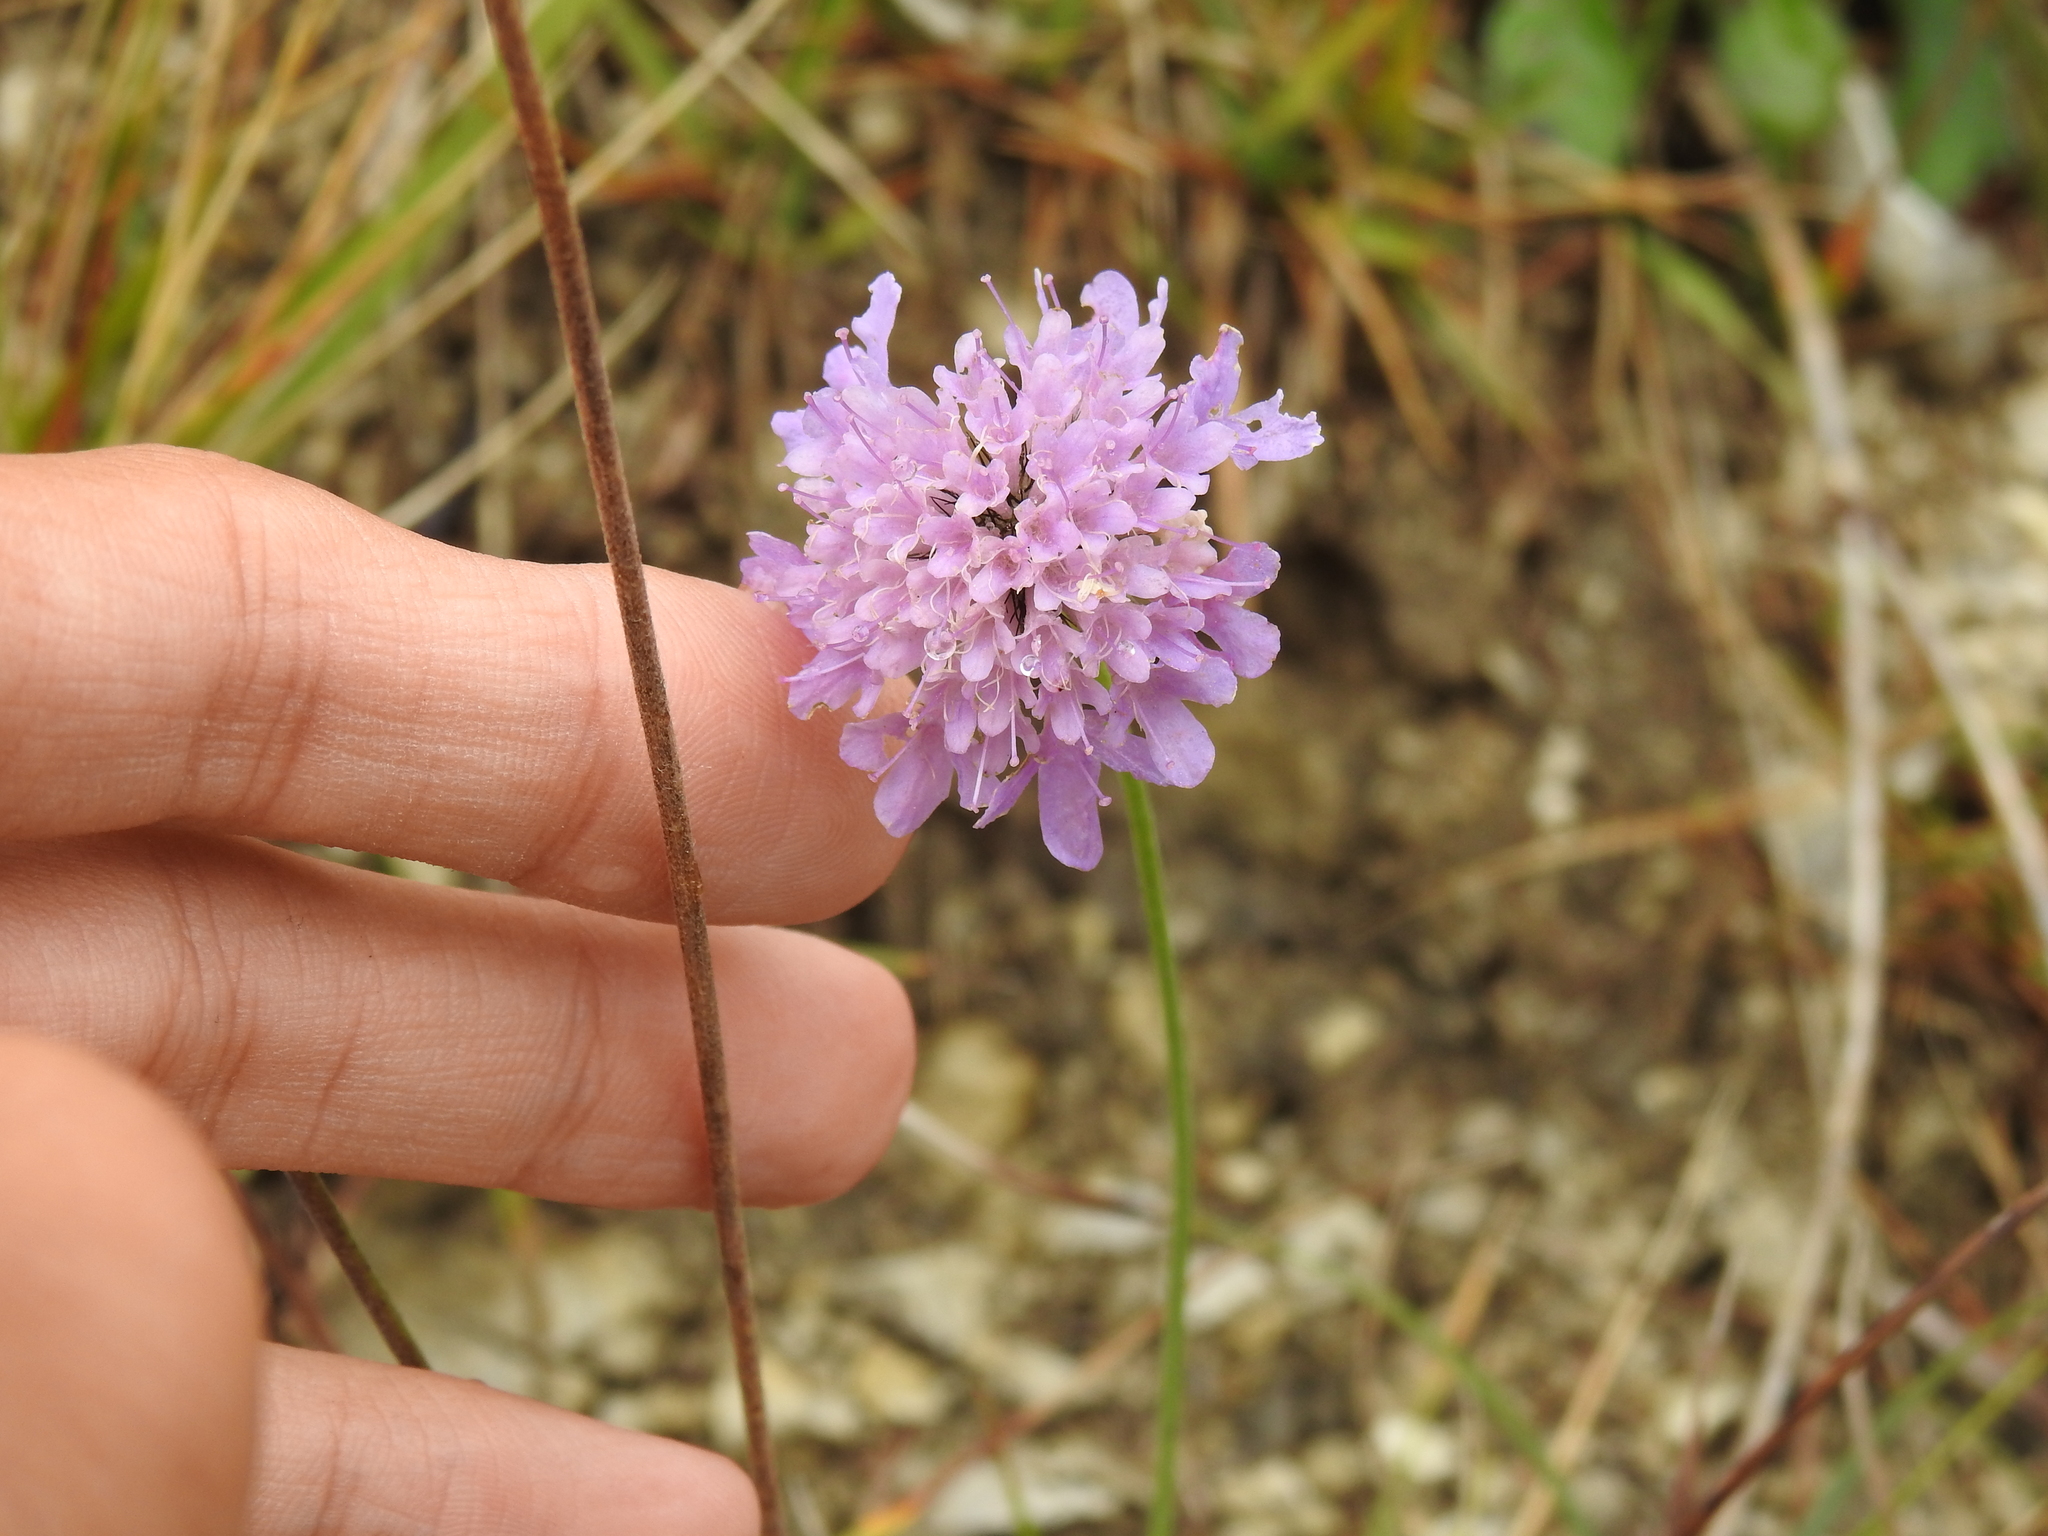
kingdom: Plantae
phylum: Tracheophyta
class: Magnoliopsida
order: Dipsacales
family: Caprifoliaceae
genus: Scabiosa
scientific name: Scabiosa lucida
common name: Shining scabious
